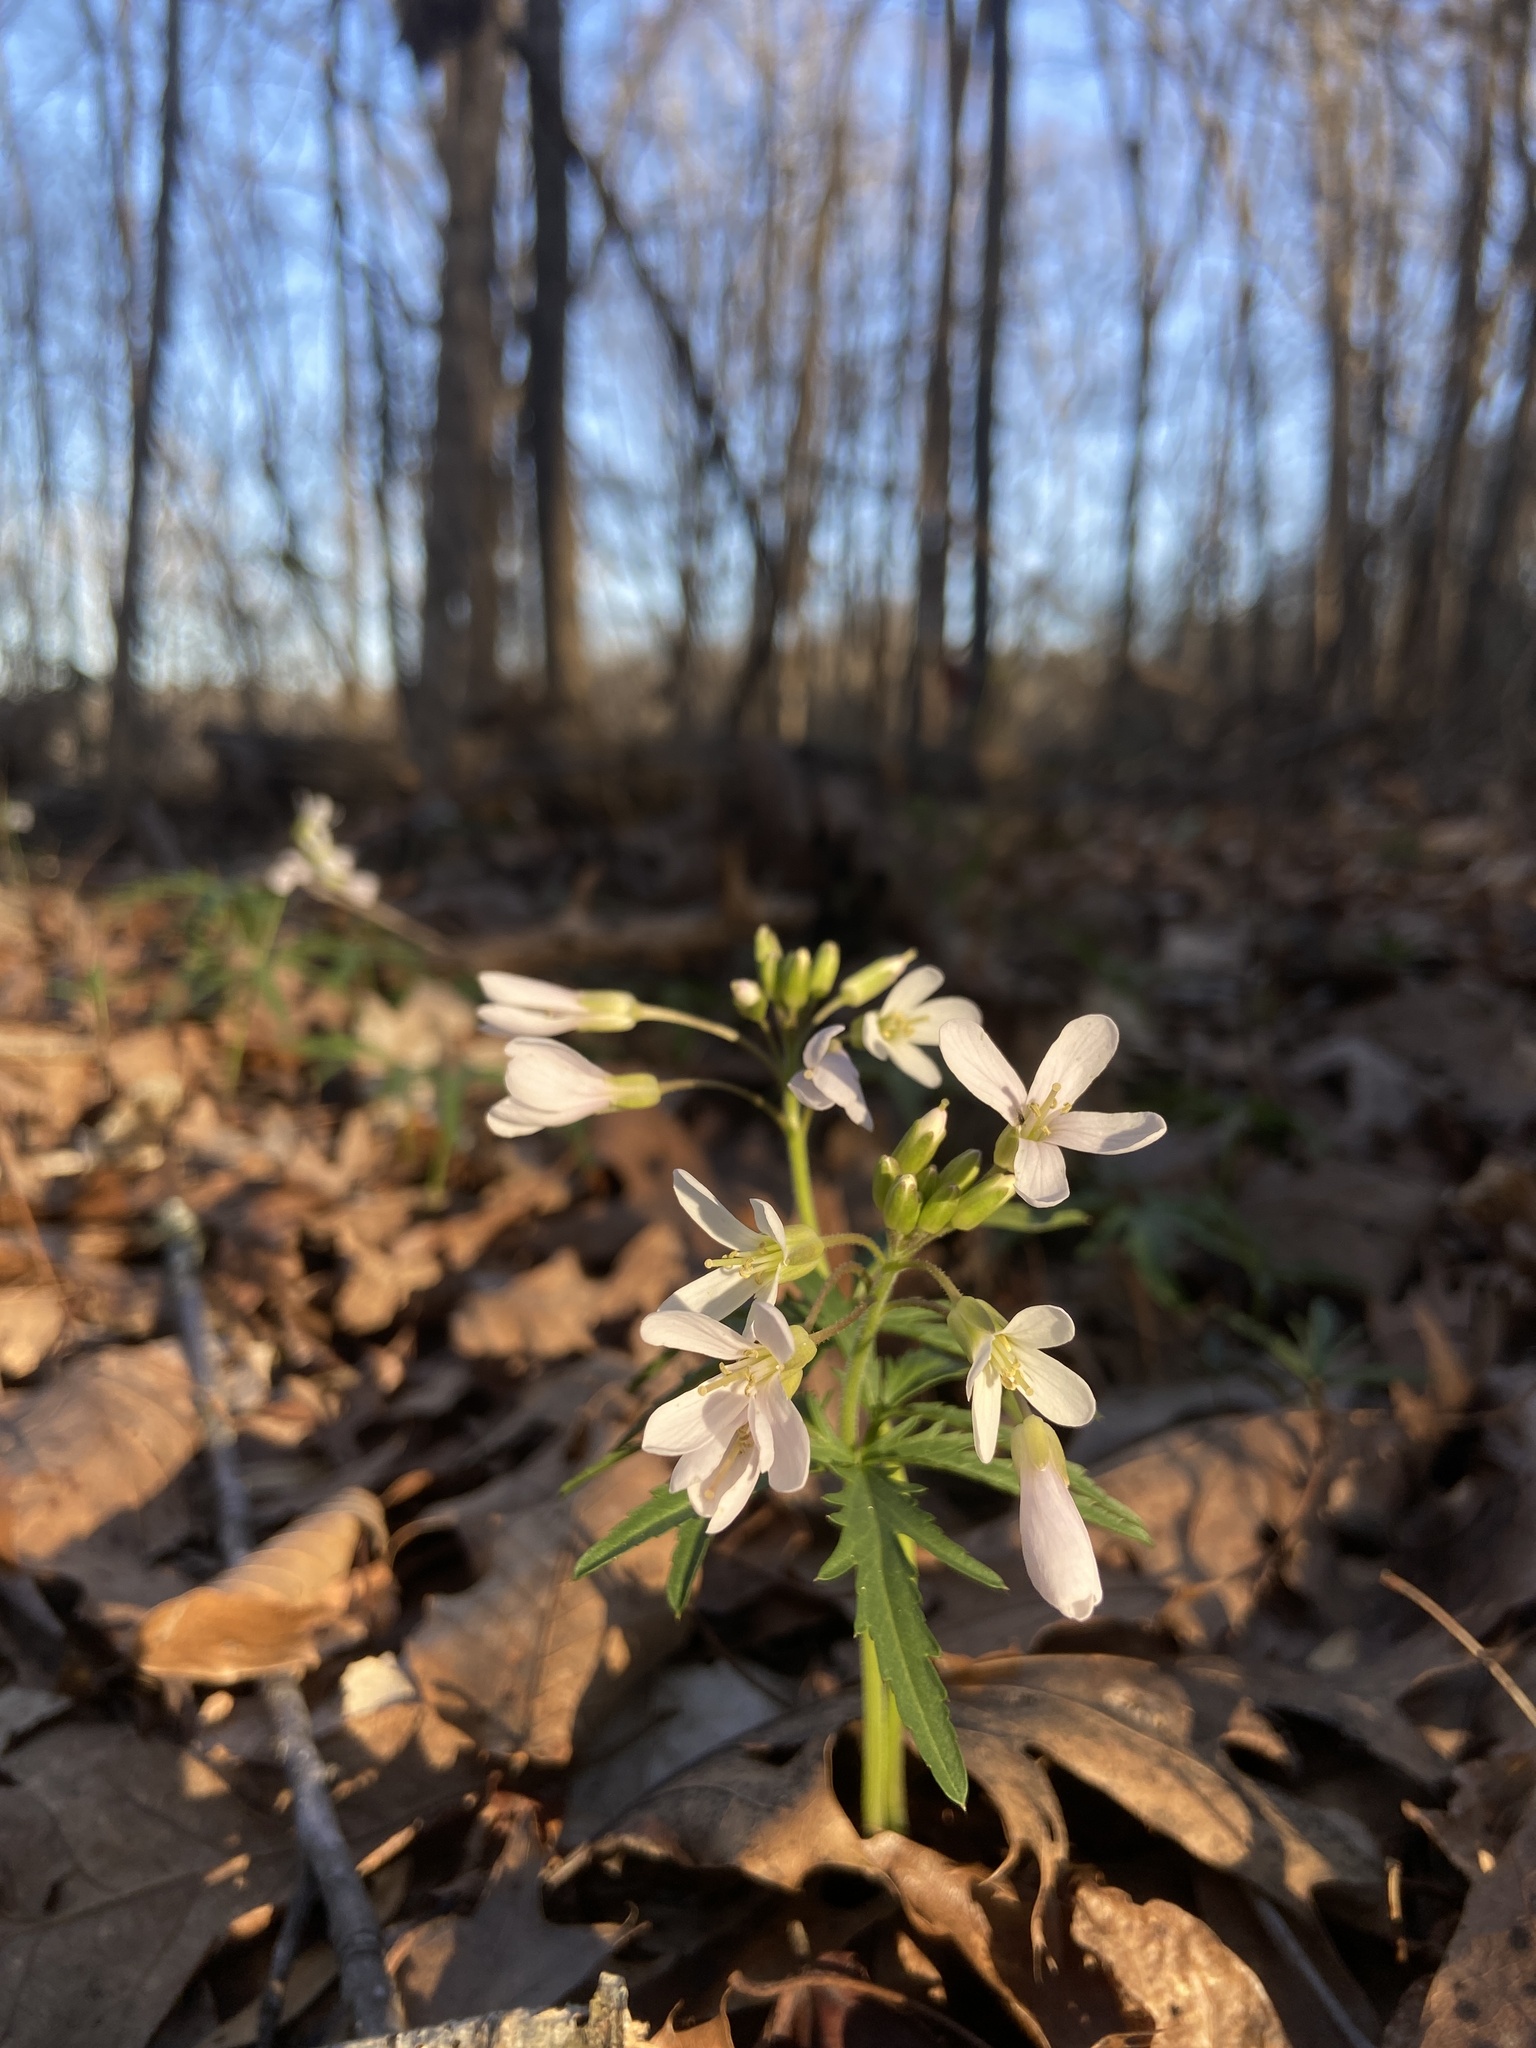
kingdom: Plantae
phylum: Tracheophyta
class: Magnoliopsida
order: Brassicales
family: Brassicaceae
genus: Cardamine
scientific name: Cardamine concatenata
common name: Cut-leaf toothcup
